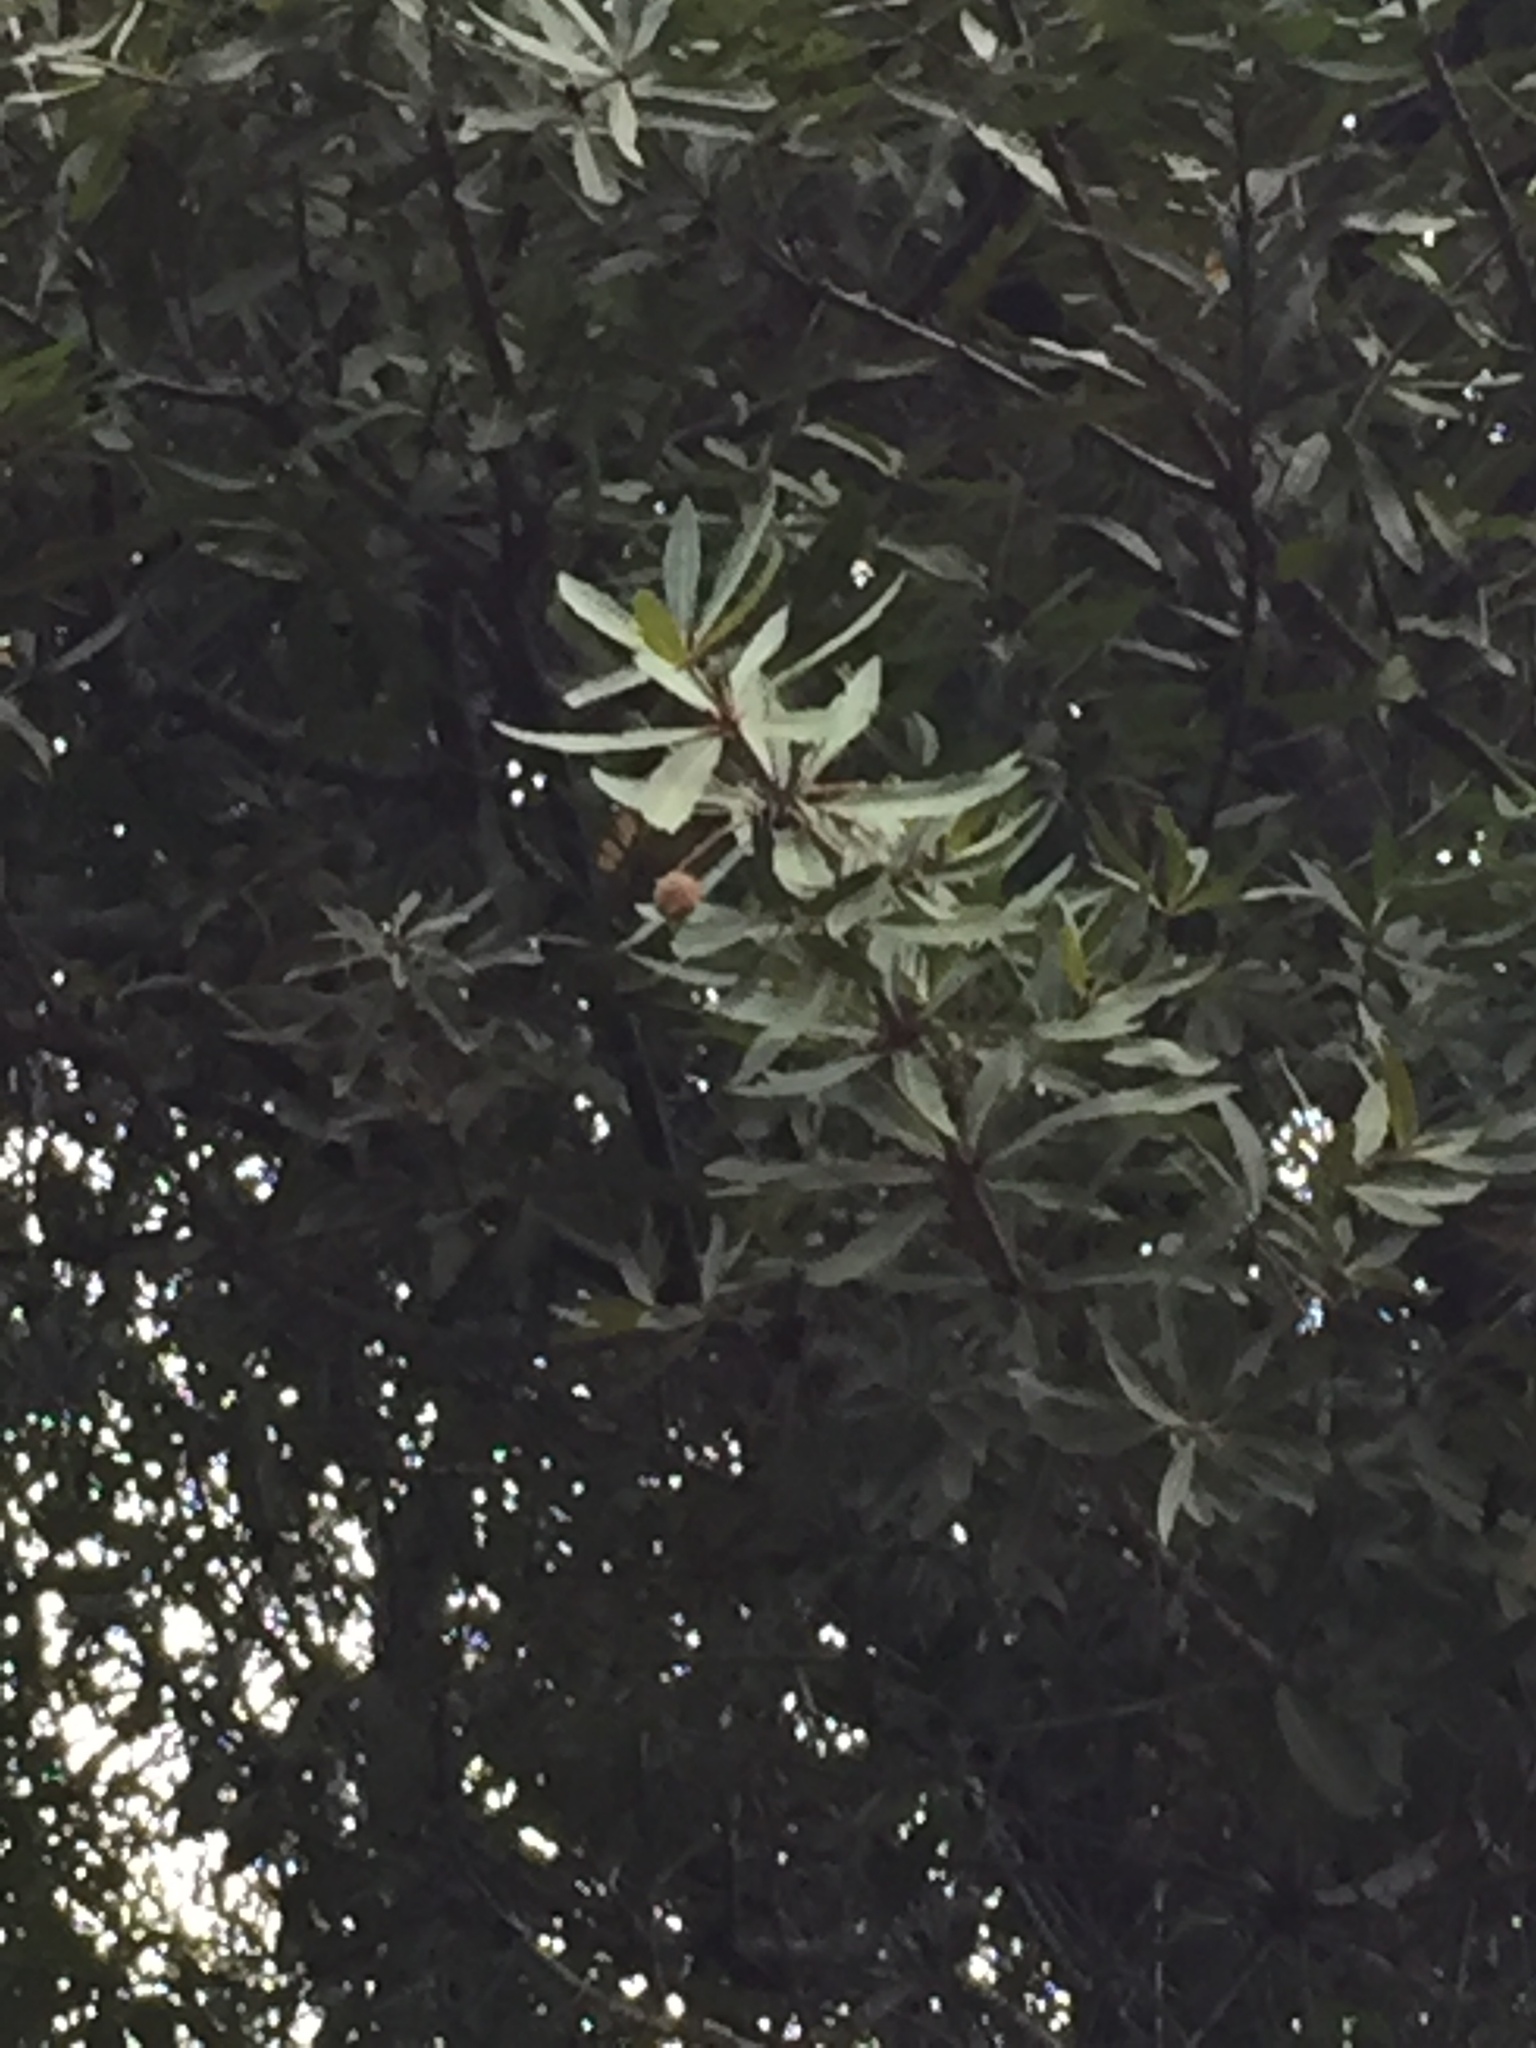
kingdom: Plantae
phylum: Tracheophyta
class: Magnoliopsida
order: Proteales
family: Proteaceae
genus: Brabejum
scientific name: Brabejum stellatifolium
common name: Wild almond
